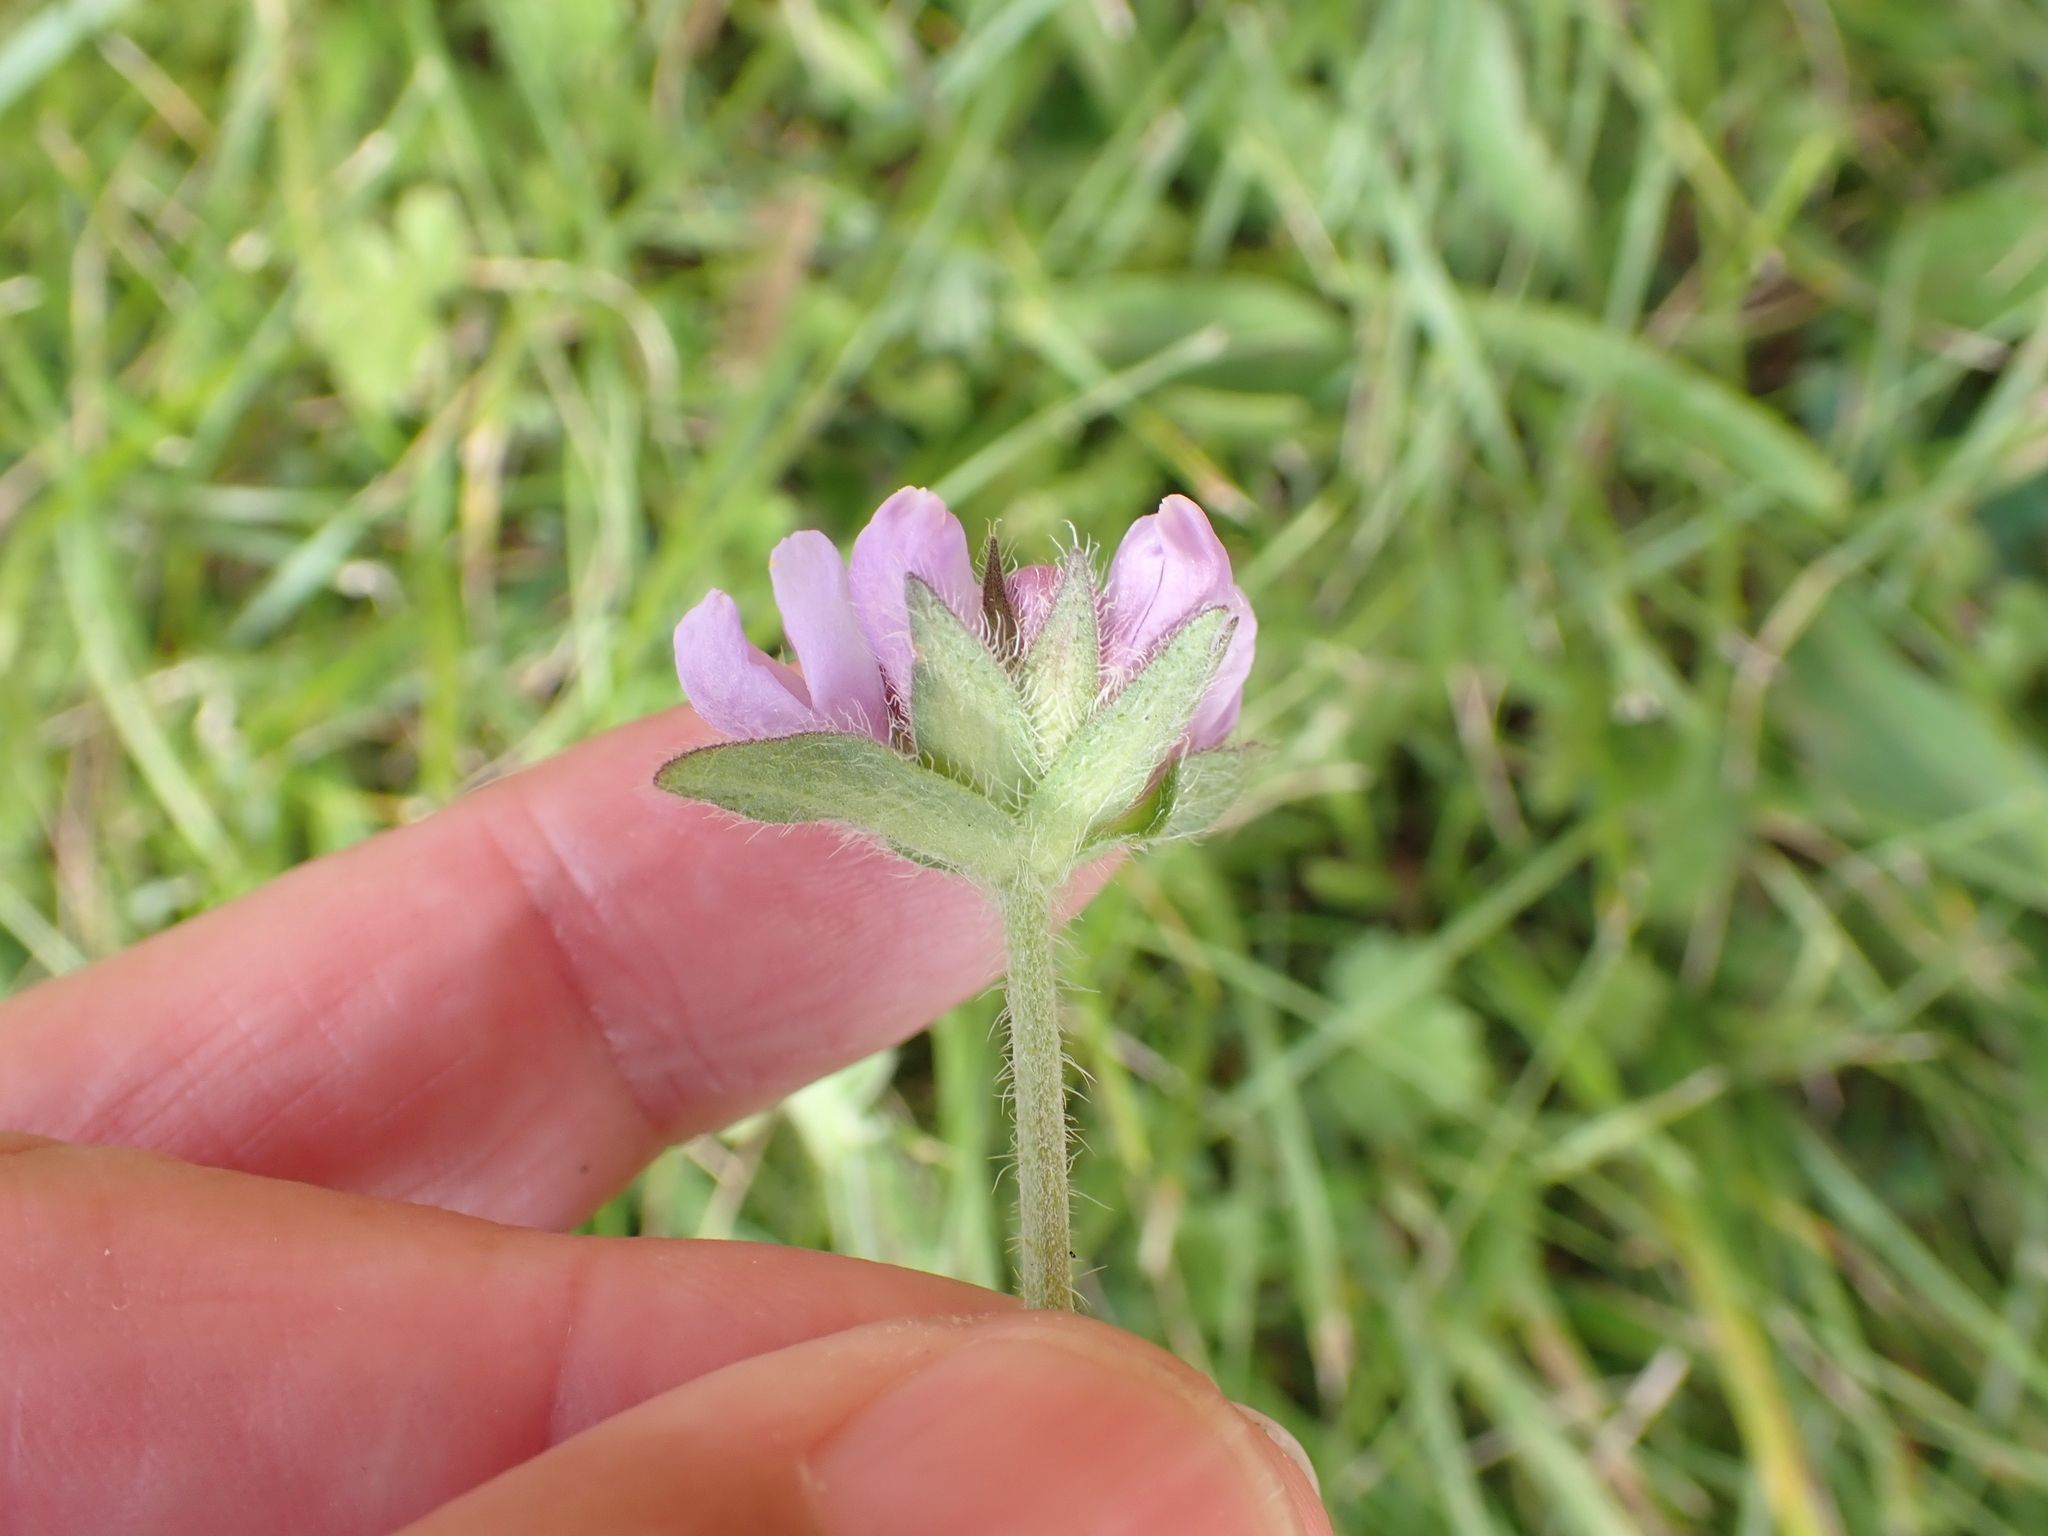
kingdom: Plantae
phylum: Tracheophyta
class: Magnoliopsida
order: Dipsacales
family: Caprifoliaceae
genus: Knautia
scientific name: Knautia arvensis
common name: Field scabiosa
